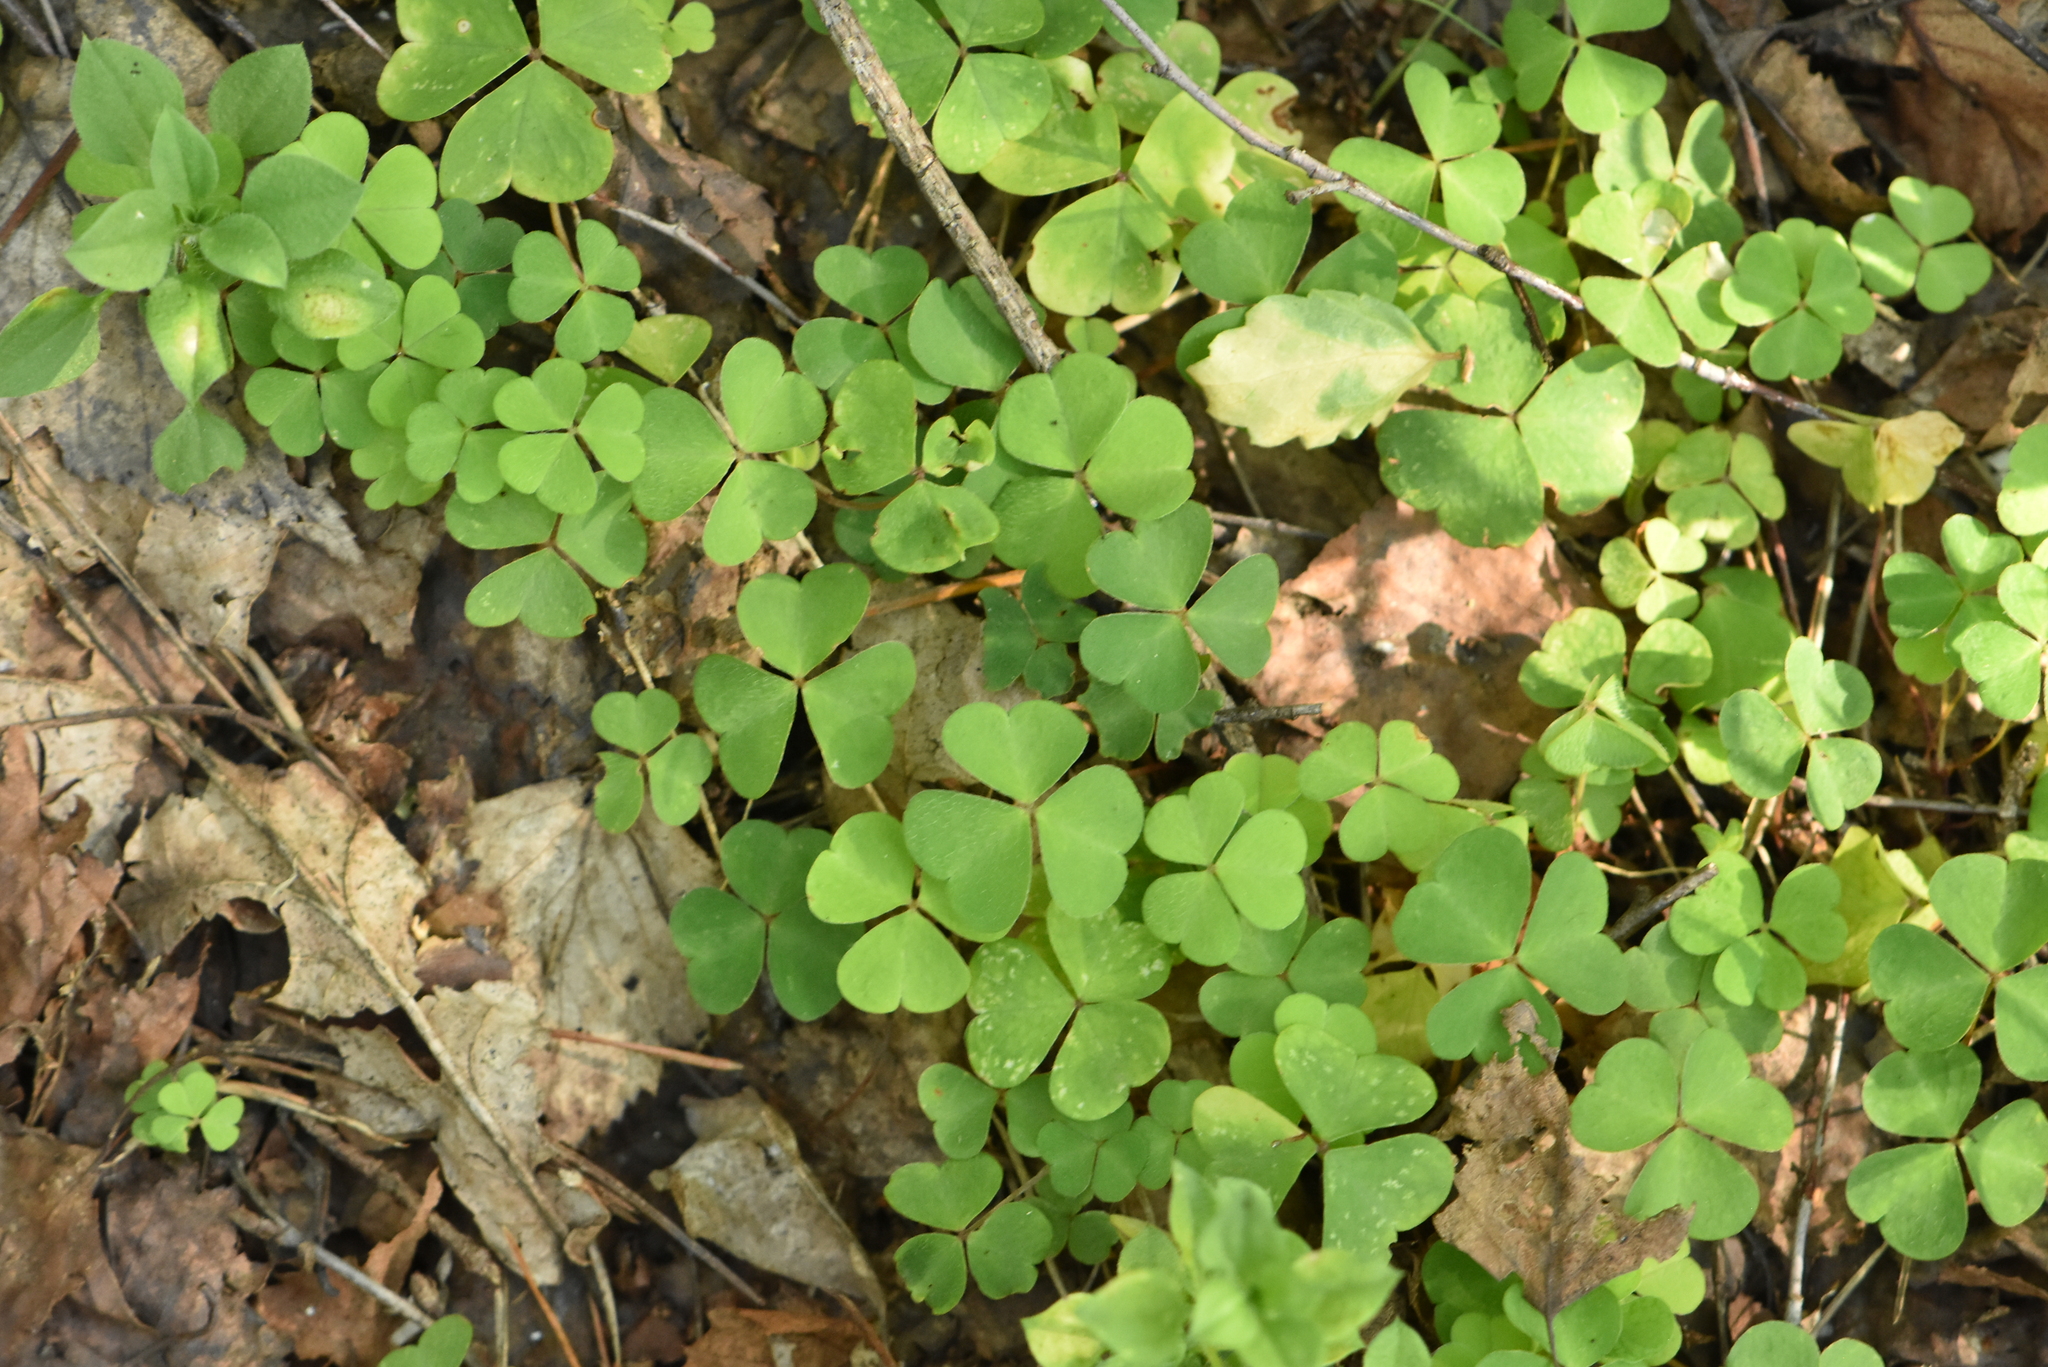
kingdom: Plantae
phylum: Tracheophyta
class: Magnoliopsida
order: Oxalidales
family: Oxalidaceae
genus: Oxalis
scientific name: Oxalis acetosella
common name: Wood-sorrel
